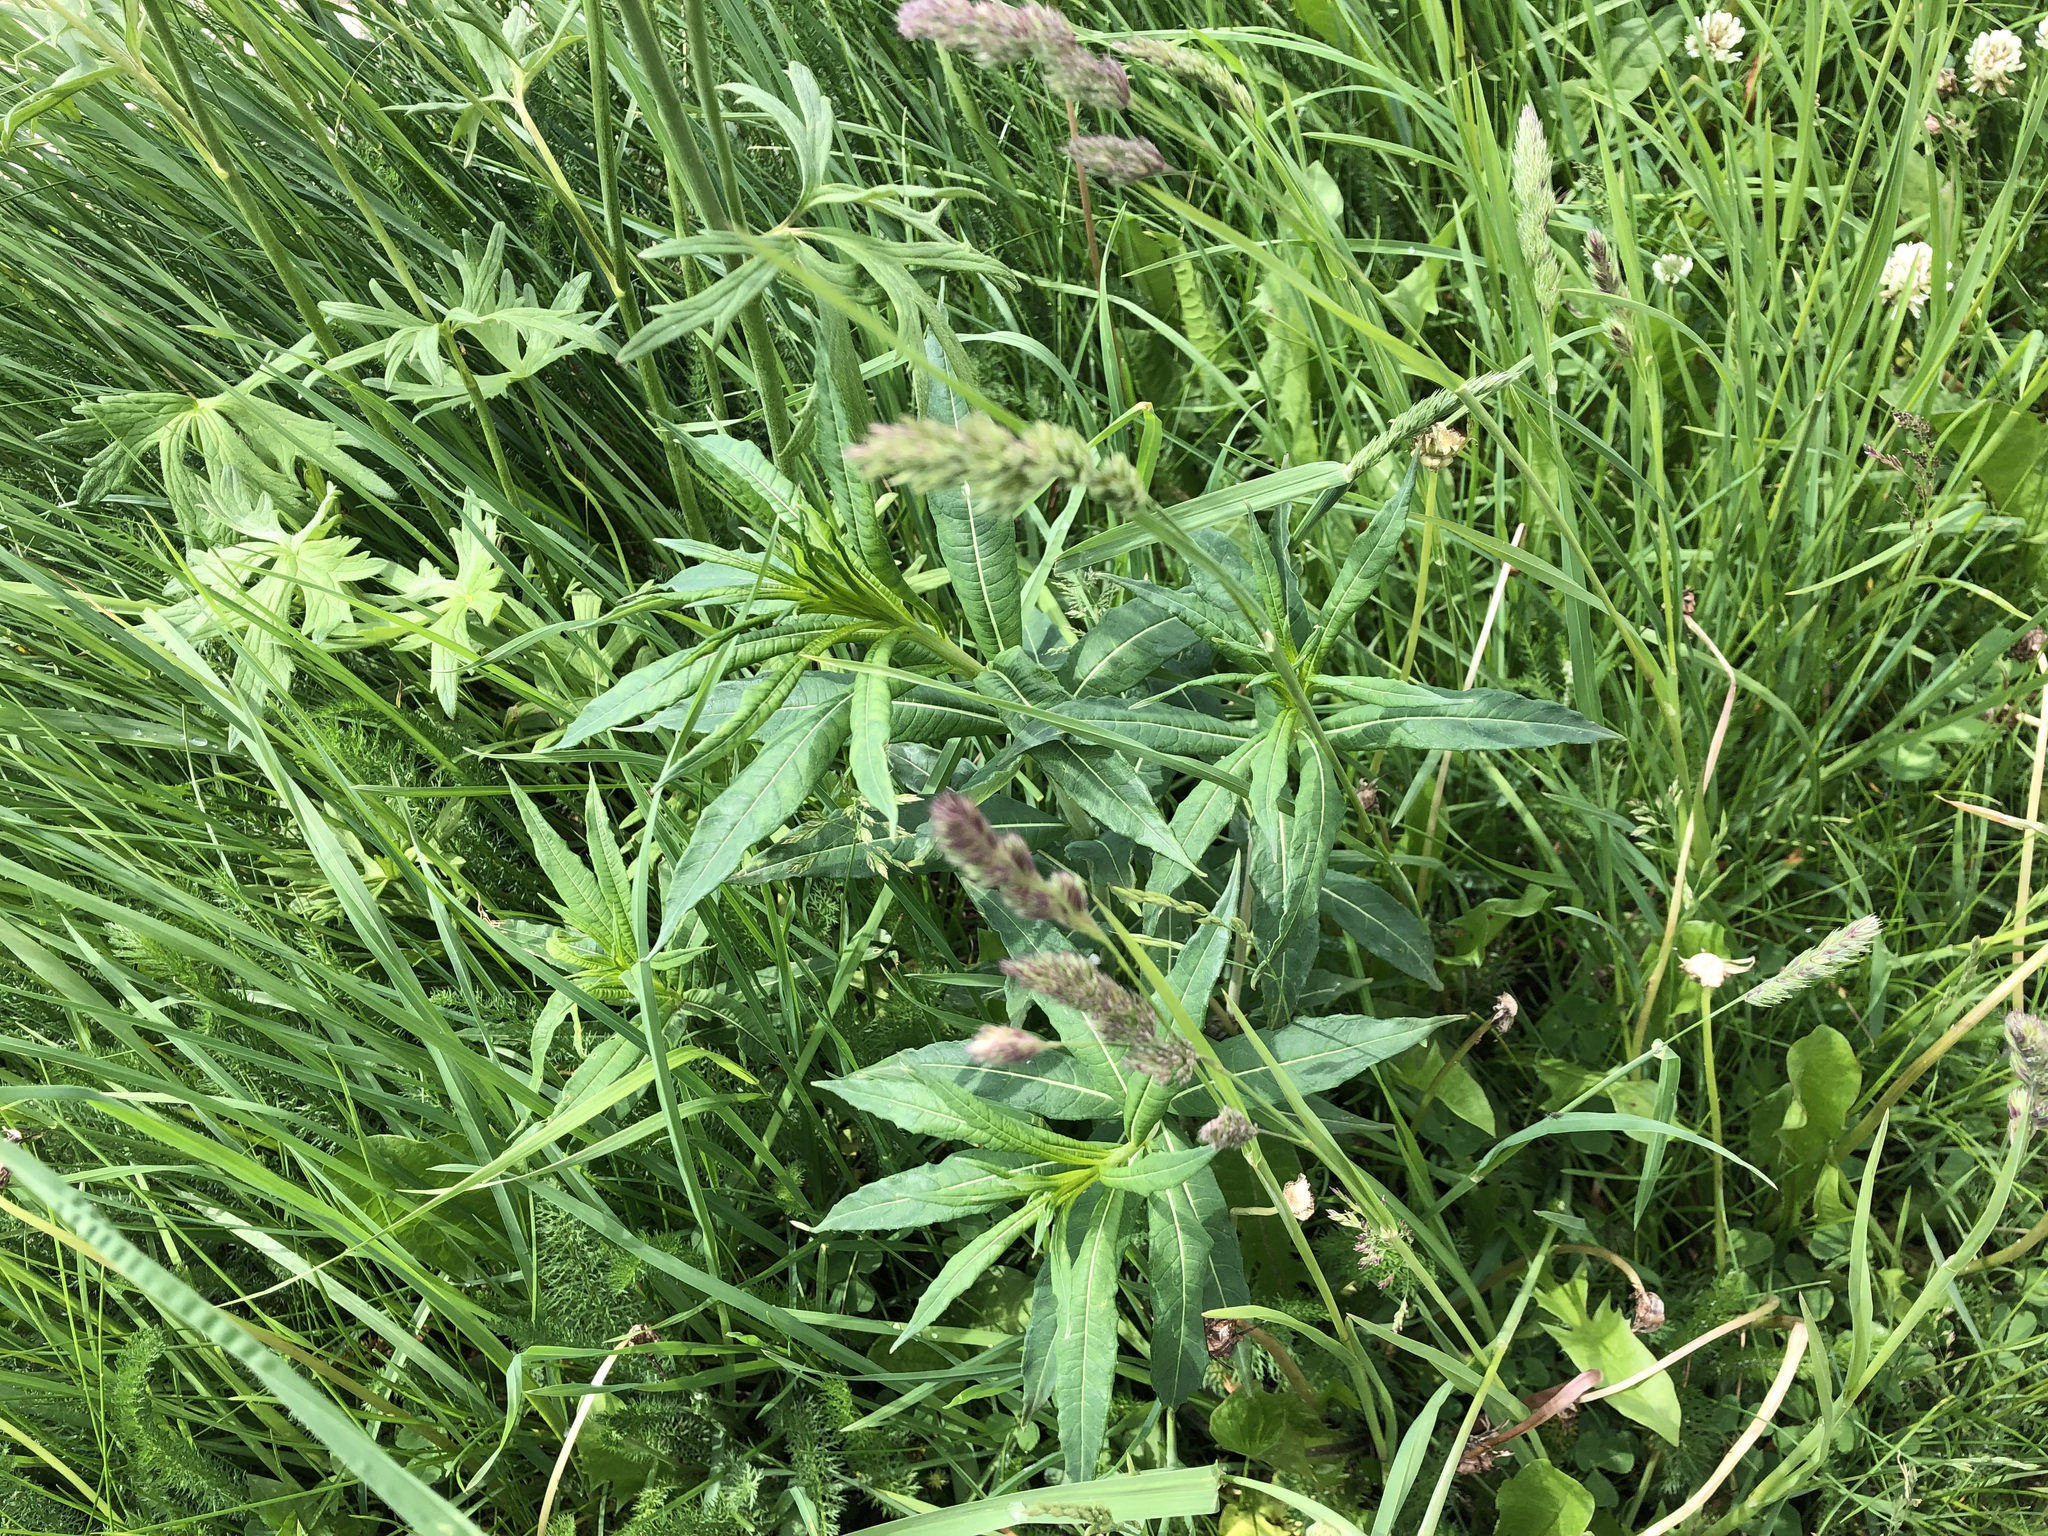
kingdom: Plantae
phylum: Tracheophyta
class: Magnoliopsida
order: Myrtales
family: Onagraceae
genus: Chamaenerion
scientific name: Chamaenerion angustifolium
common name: Fireweed
